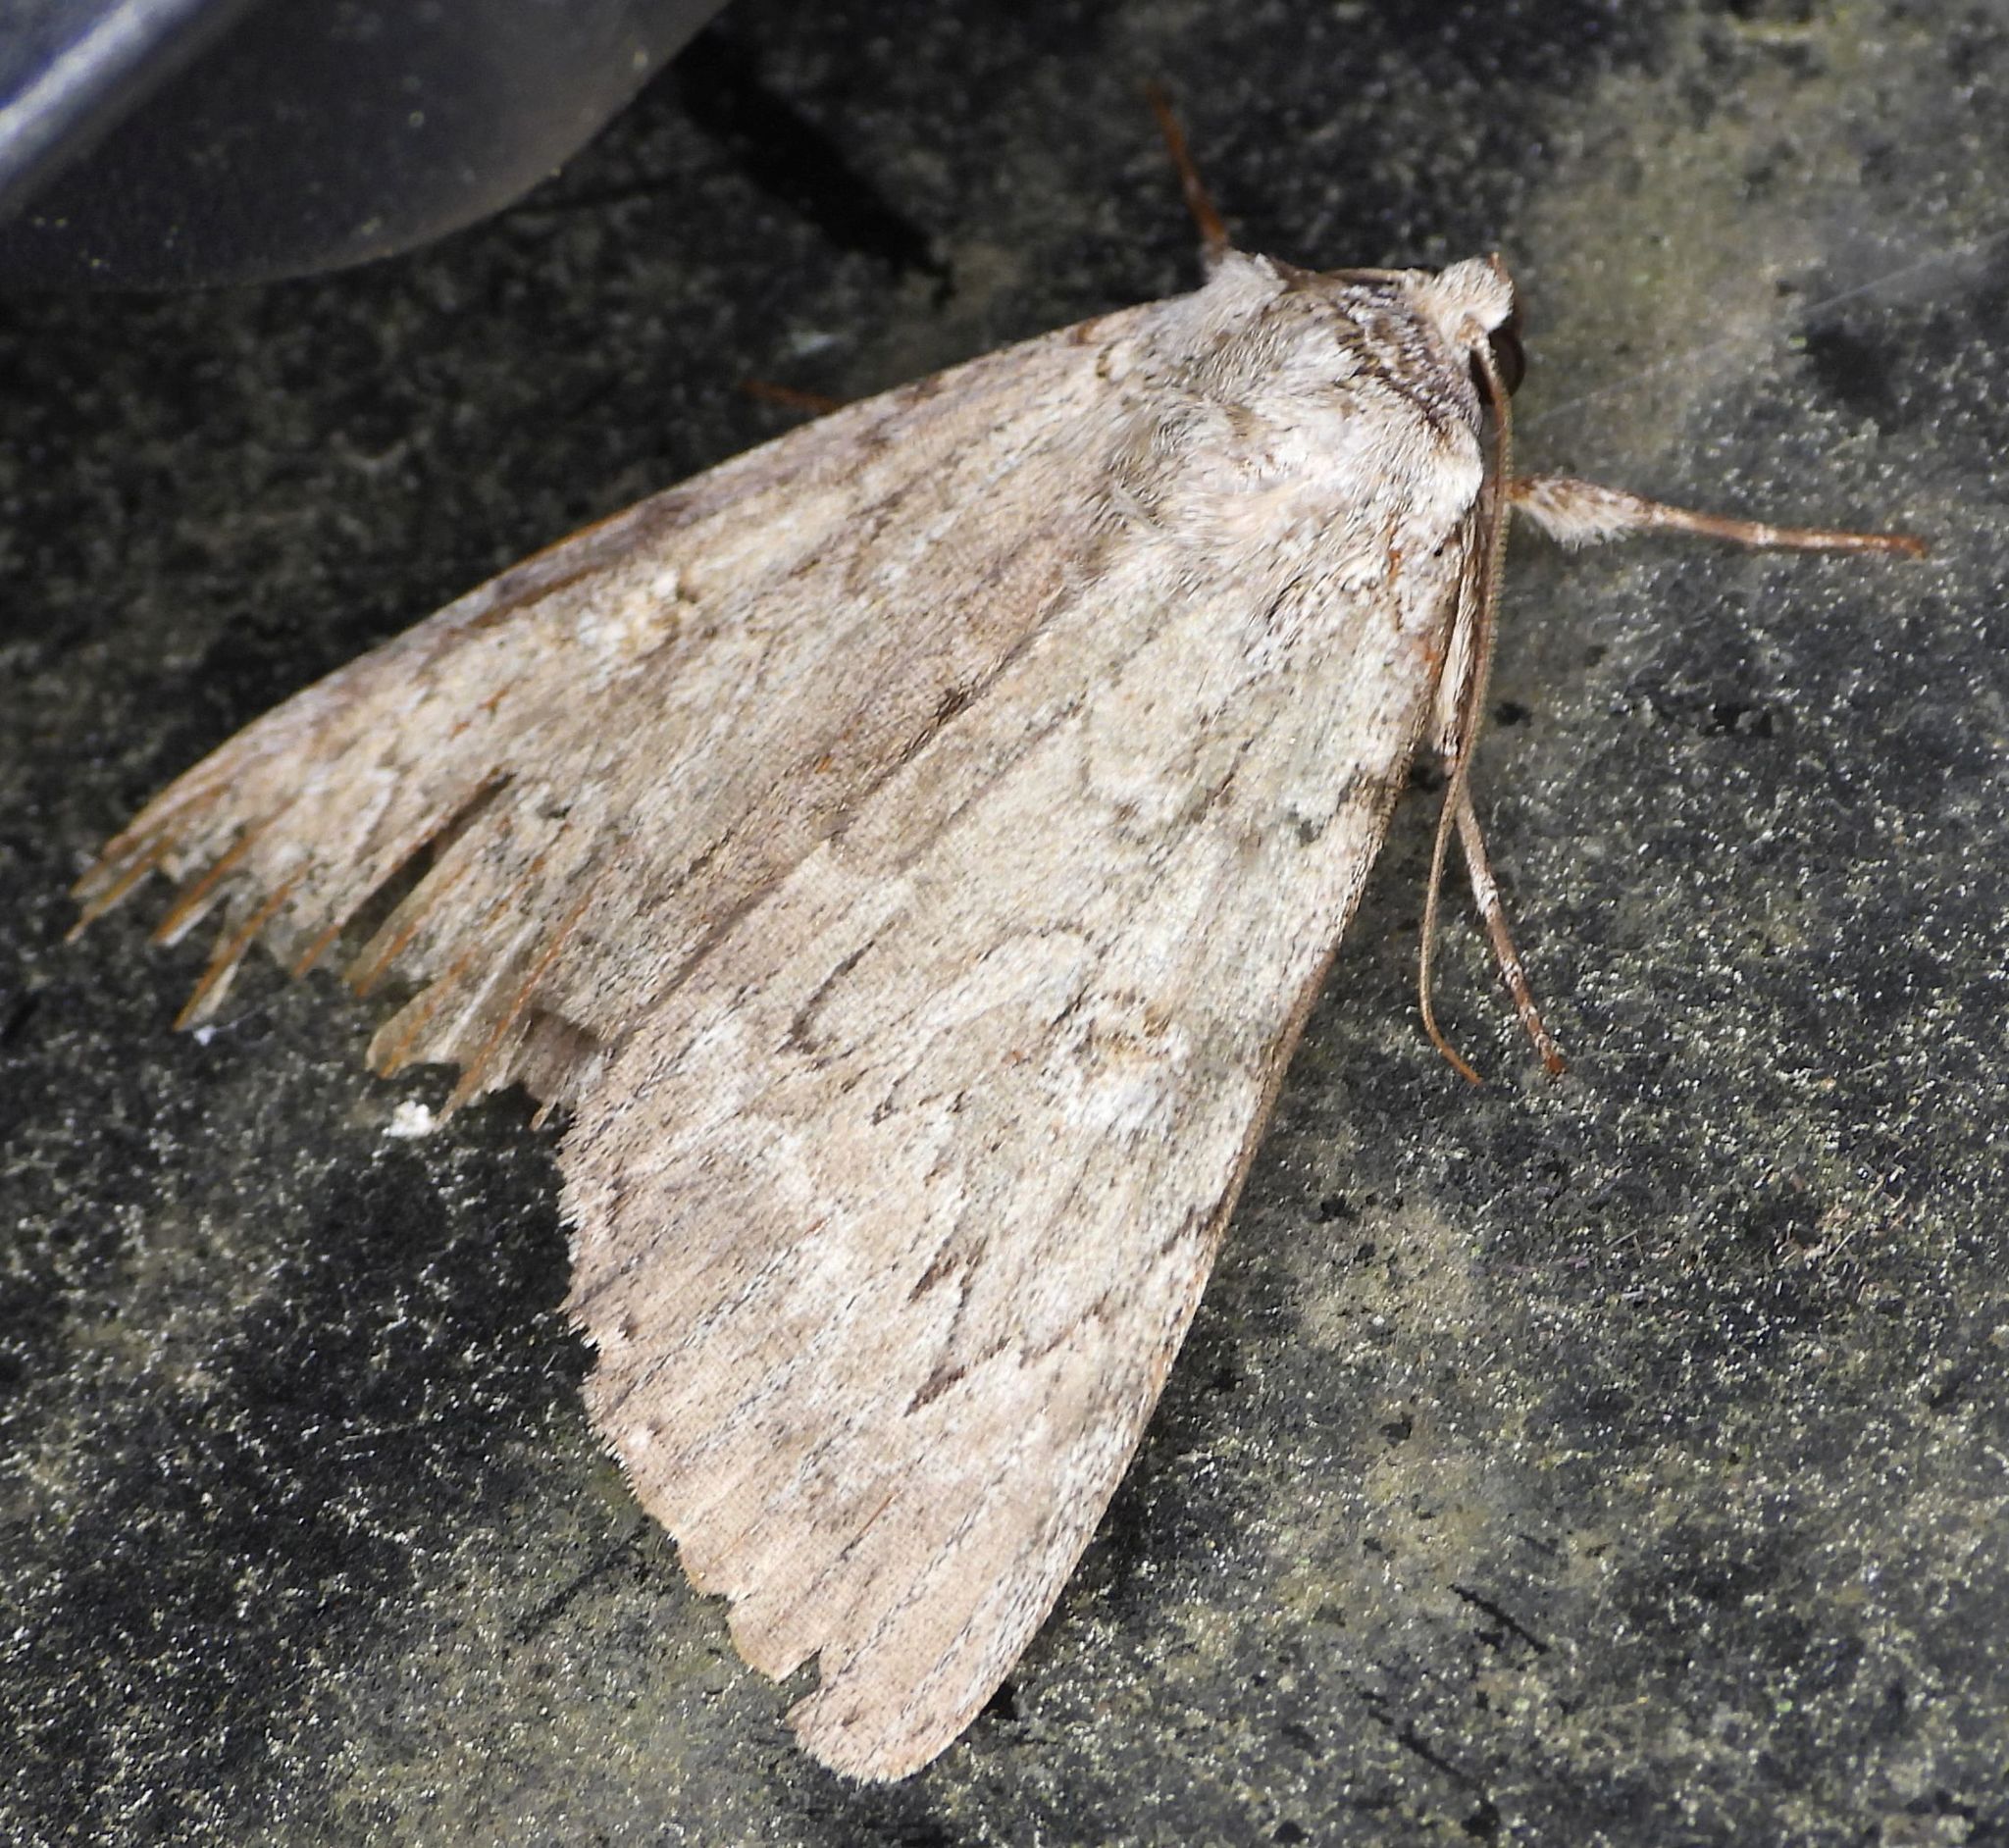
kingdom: Animalia
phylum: Arthropoda
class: Insecta
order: Lepidoptera
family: Erebidae
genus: Catocala
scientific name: Catocala judith
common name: Judith's underwing
